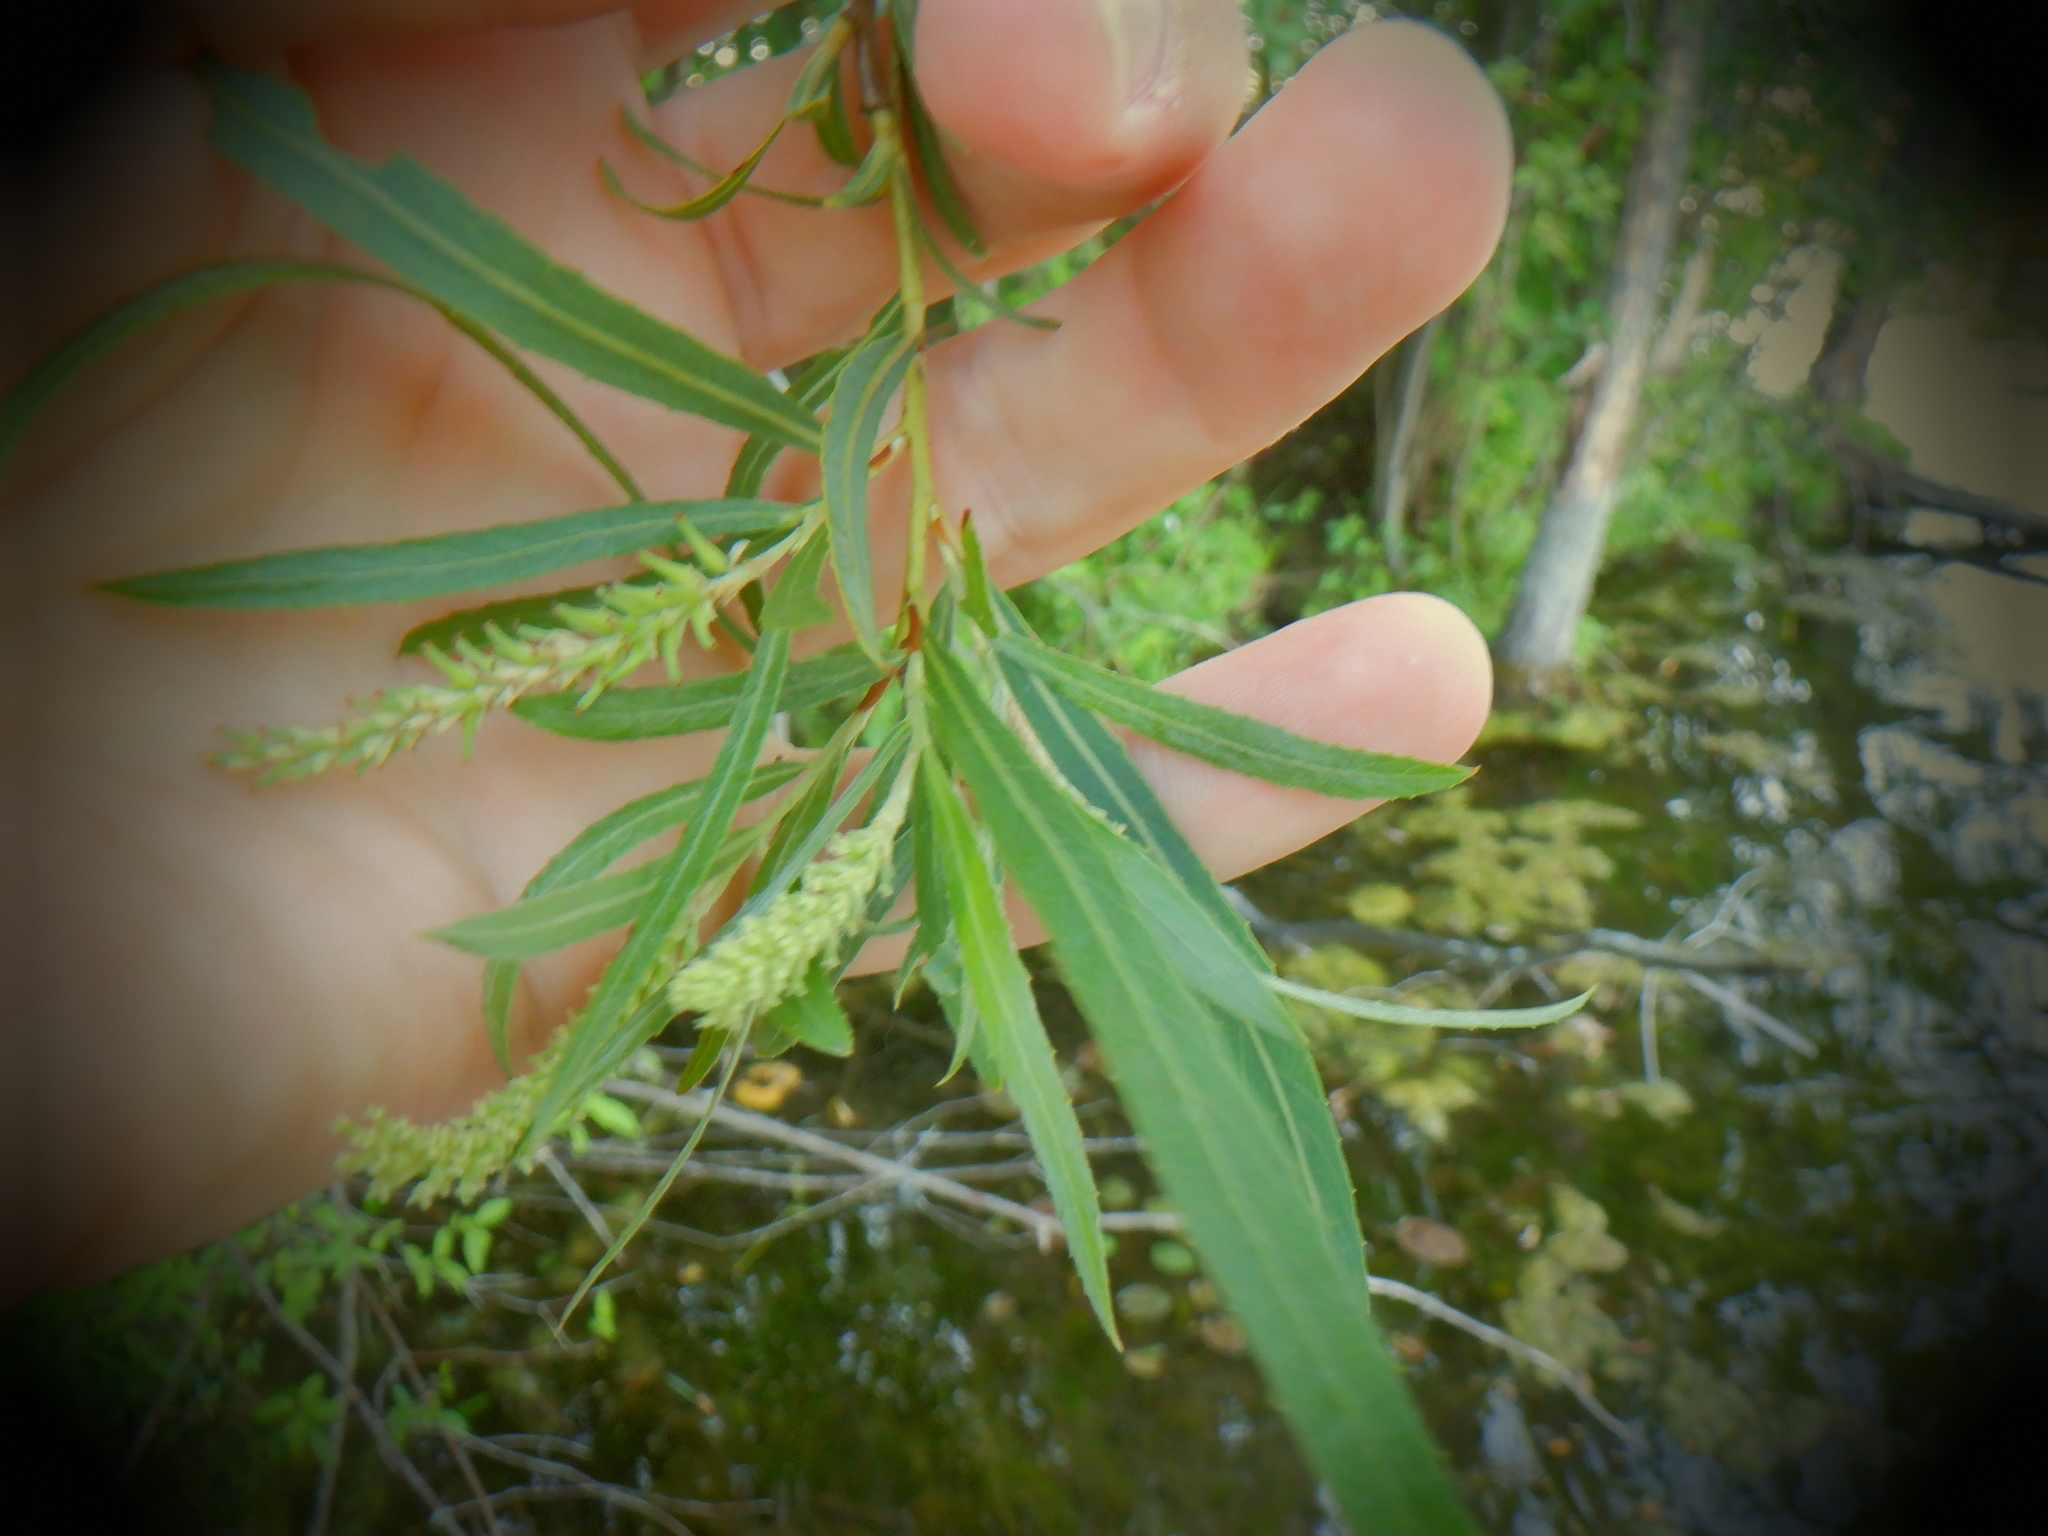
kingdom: Plantae
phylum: Tracheophyta
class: Magnoliopsida
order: Malpighiales
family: Salicaceae
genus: Salix
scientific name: Salix interior
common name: Sandbar willow
